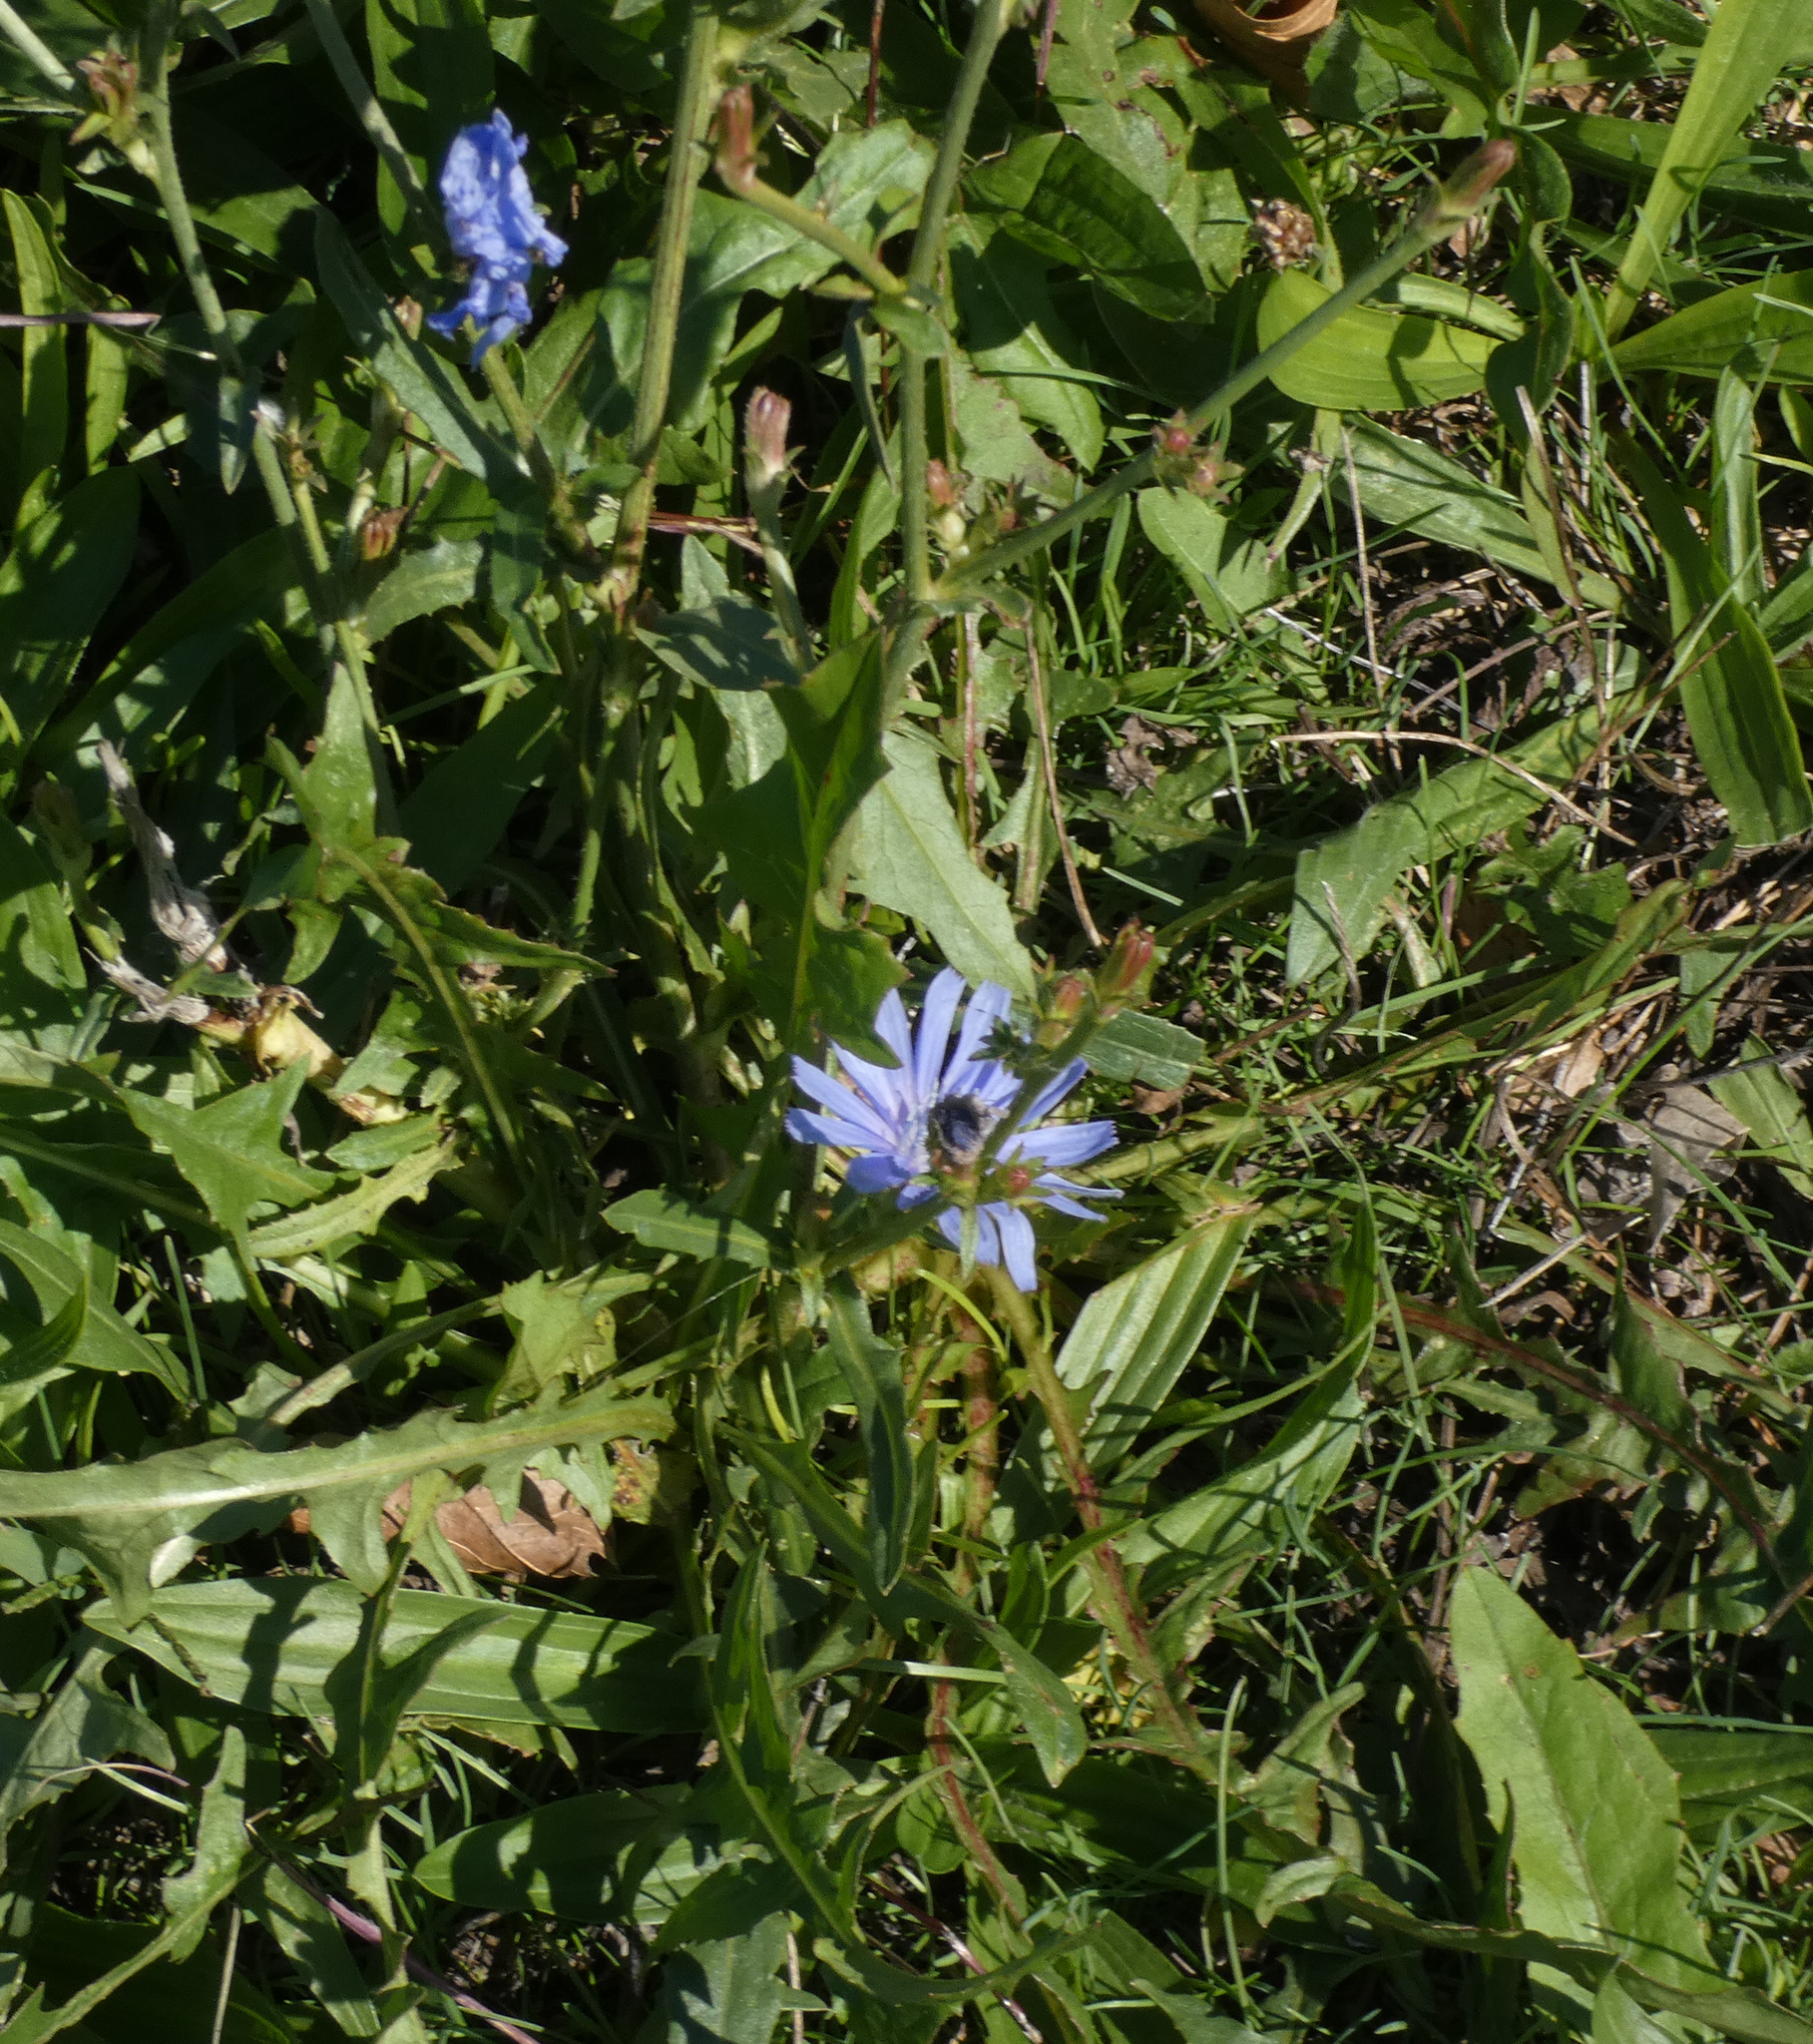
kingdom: Plantae
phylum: Tracheophyta
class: Magnoliopsida
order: Asterales
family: Asteraceae
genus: Cichorium
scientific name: Cichorium intybus
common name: Chicory
